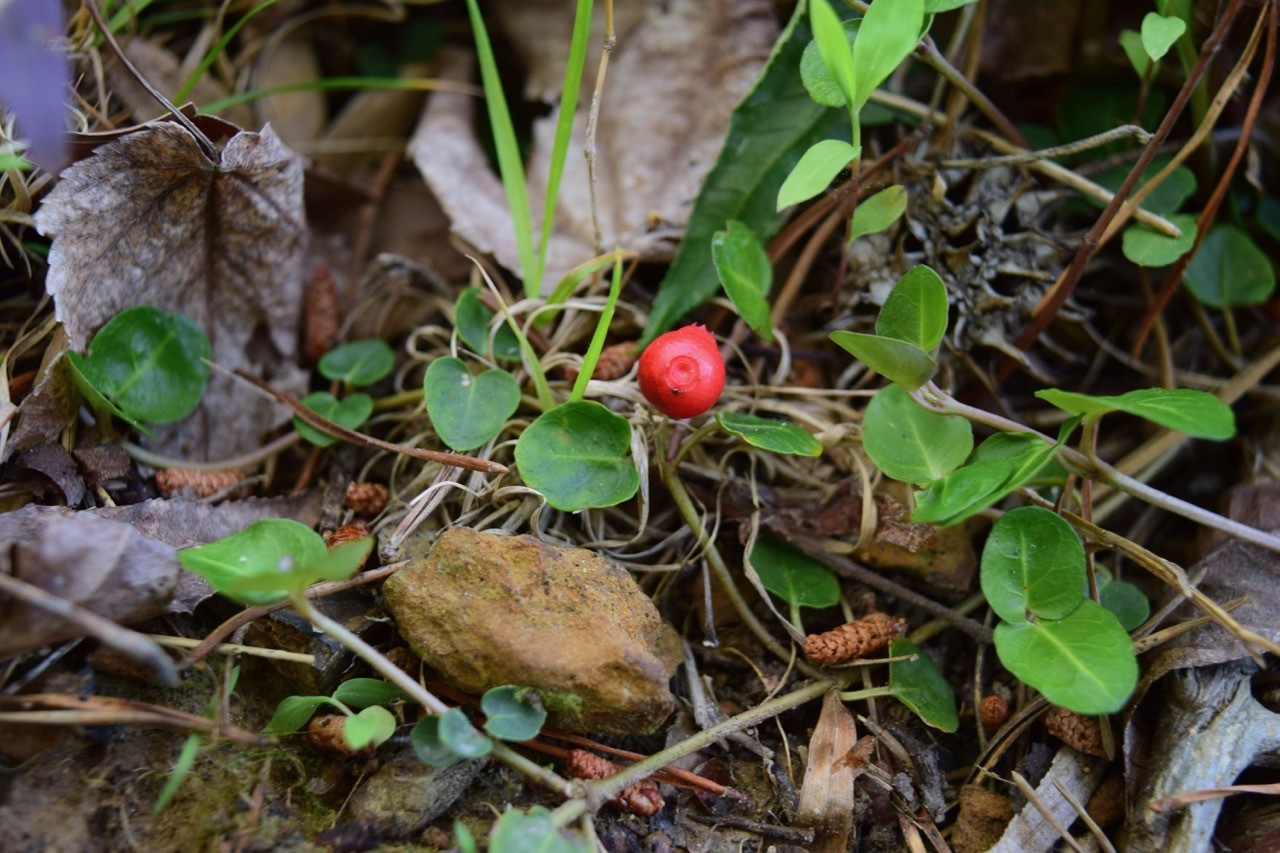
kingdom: Plantae
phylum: Tracheophyta
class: Magnoliopsida
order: Gentianales
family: Rubiaceae
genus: Mitchella
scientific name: Mitchella repens
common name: Partridge-berry
